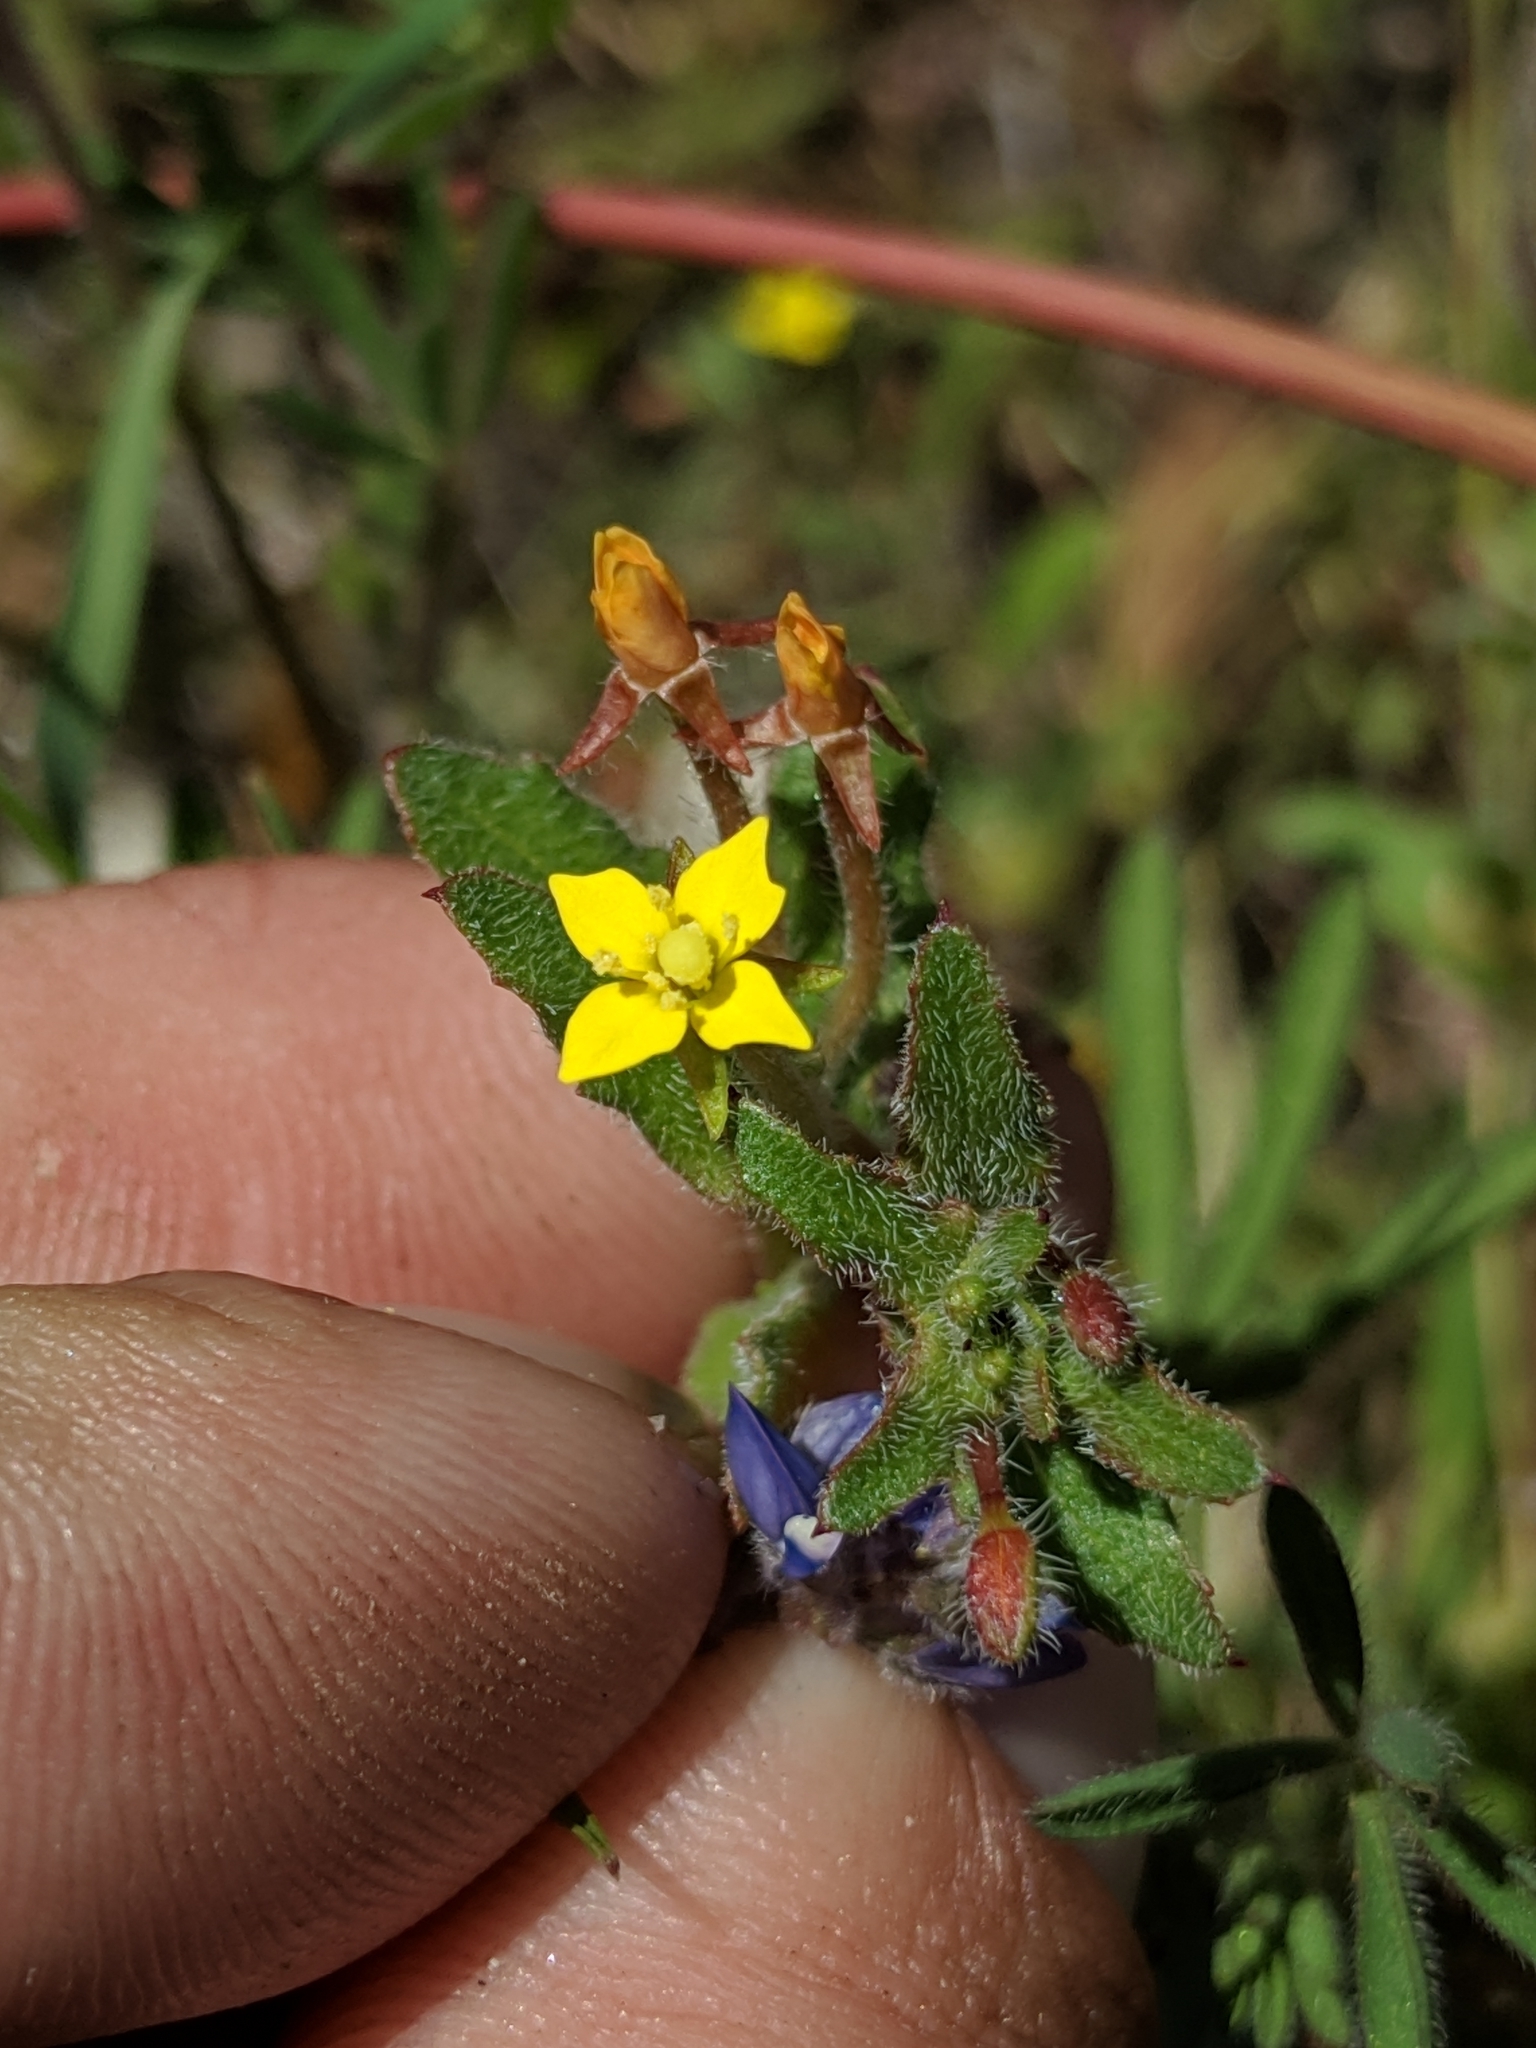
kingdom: Plantae
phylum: Tracheophyta
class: Magnoliopsida
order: Myrtales
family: Onagraceae
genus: Camissoniopsis
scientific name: Camissoniopsis hirtella
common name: Santa cruz island suncup
